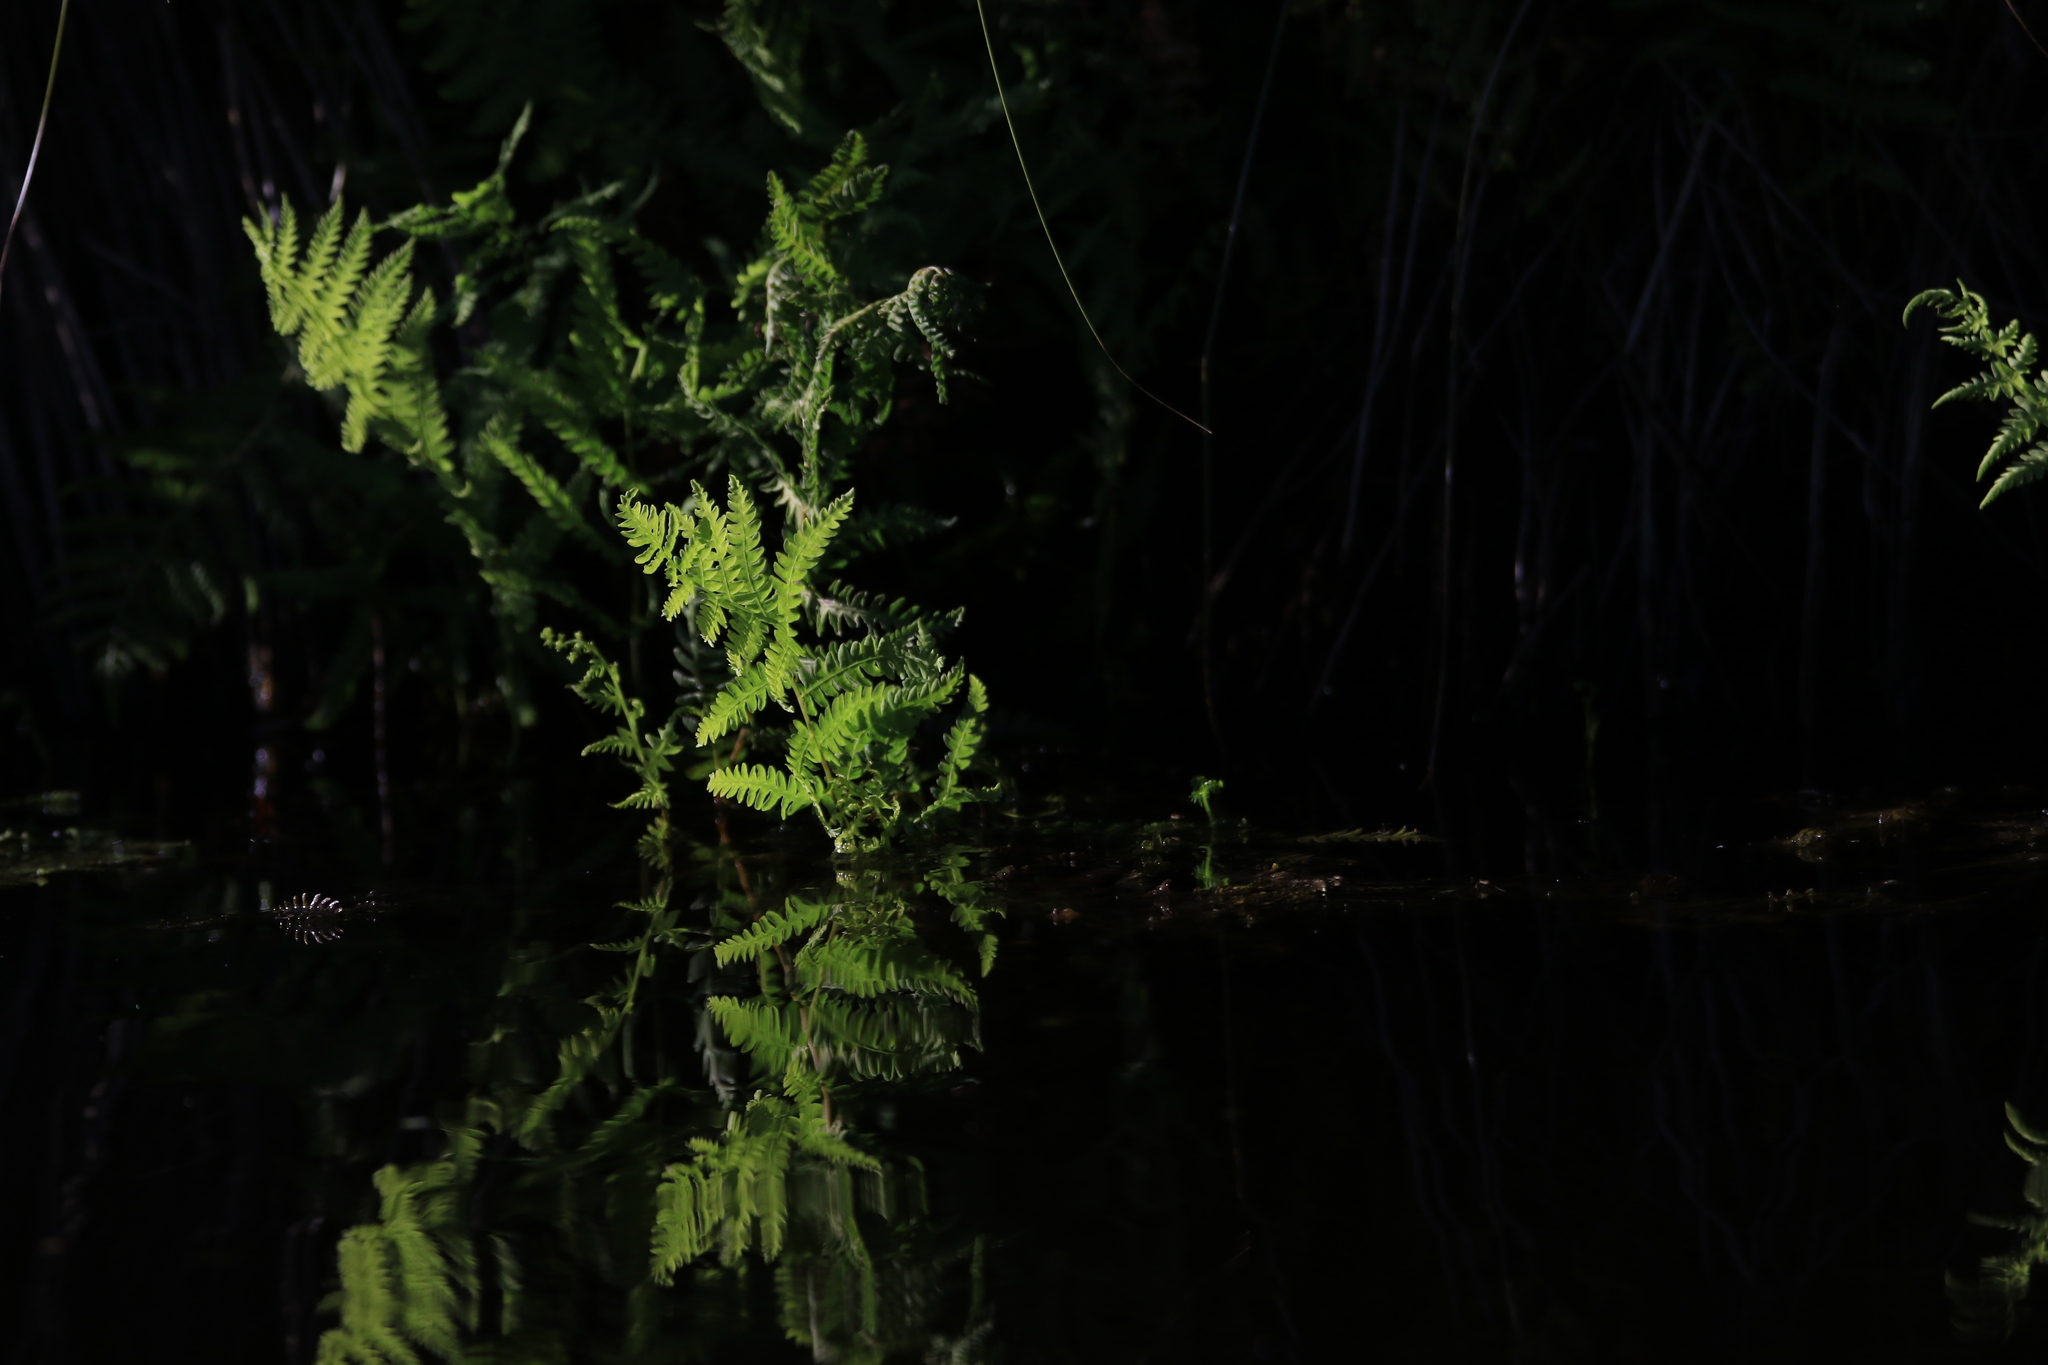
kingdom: Plantae
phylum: Tracheophyta
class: Polypodiopsida
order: Polypodiales
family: Thelypteridaceae
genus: Thelypteris
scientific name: Thelypteris palustris
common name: Marsh fern
